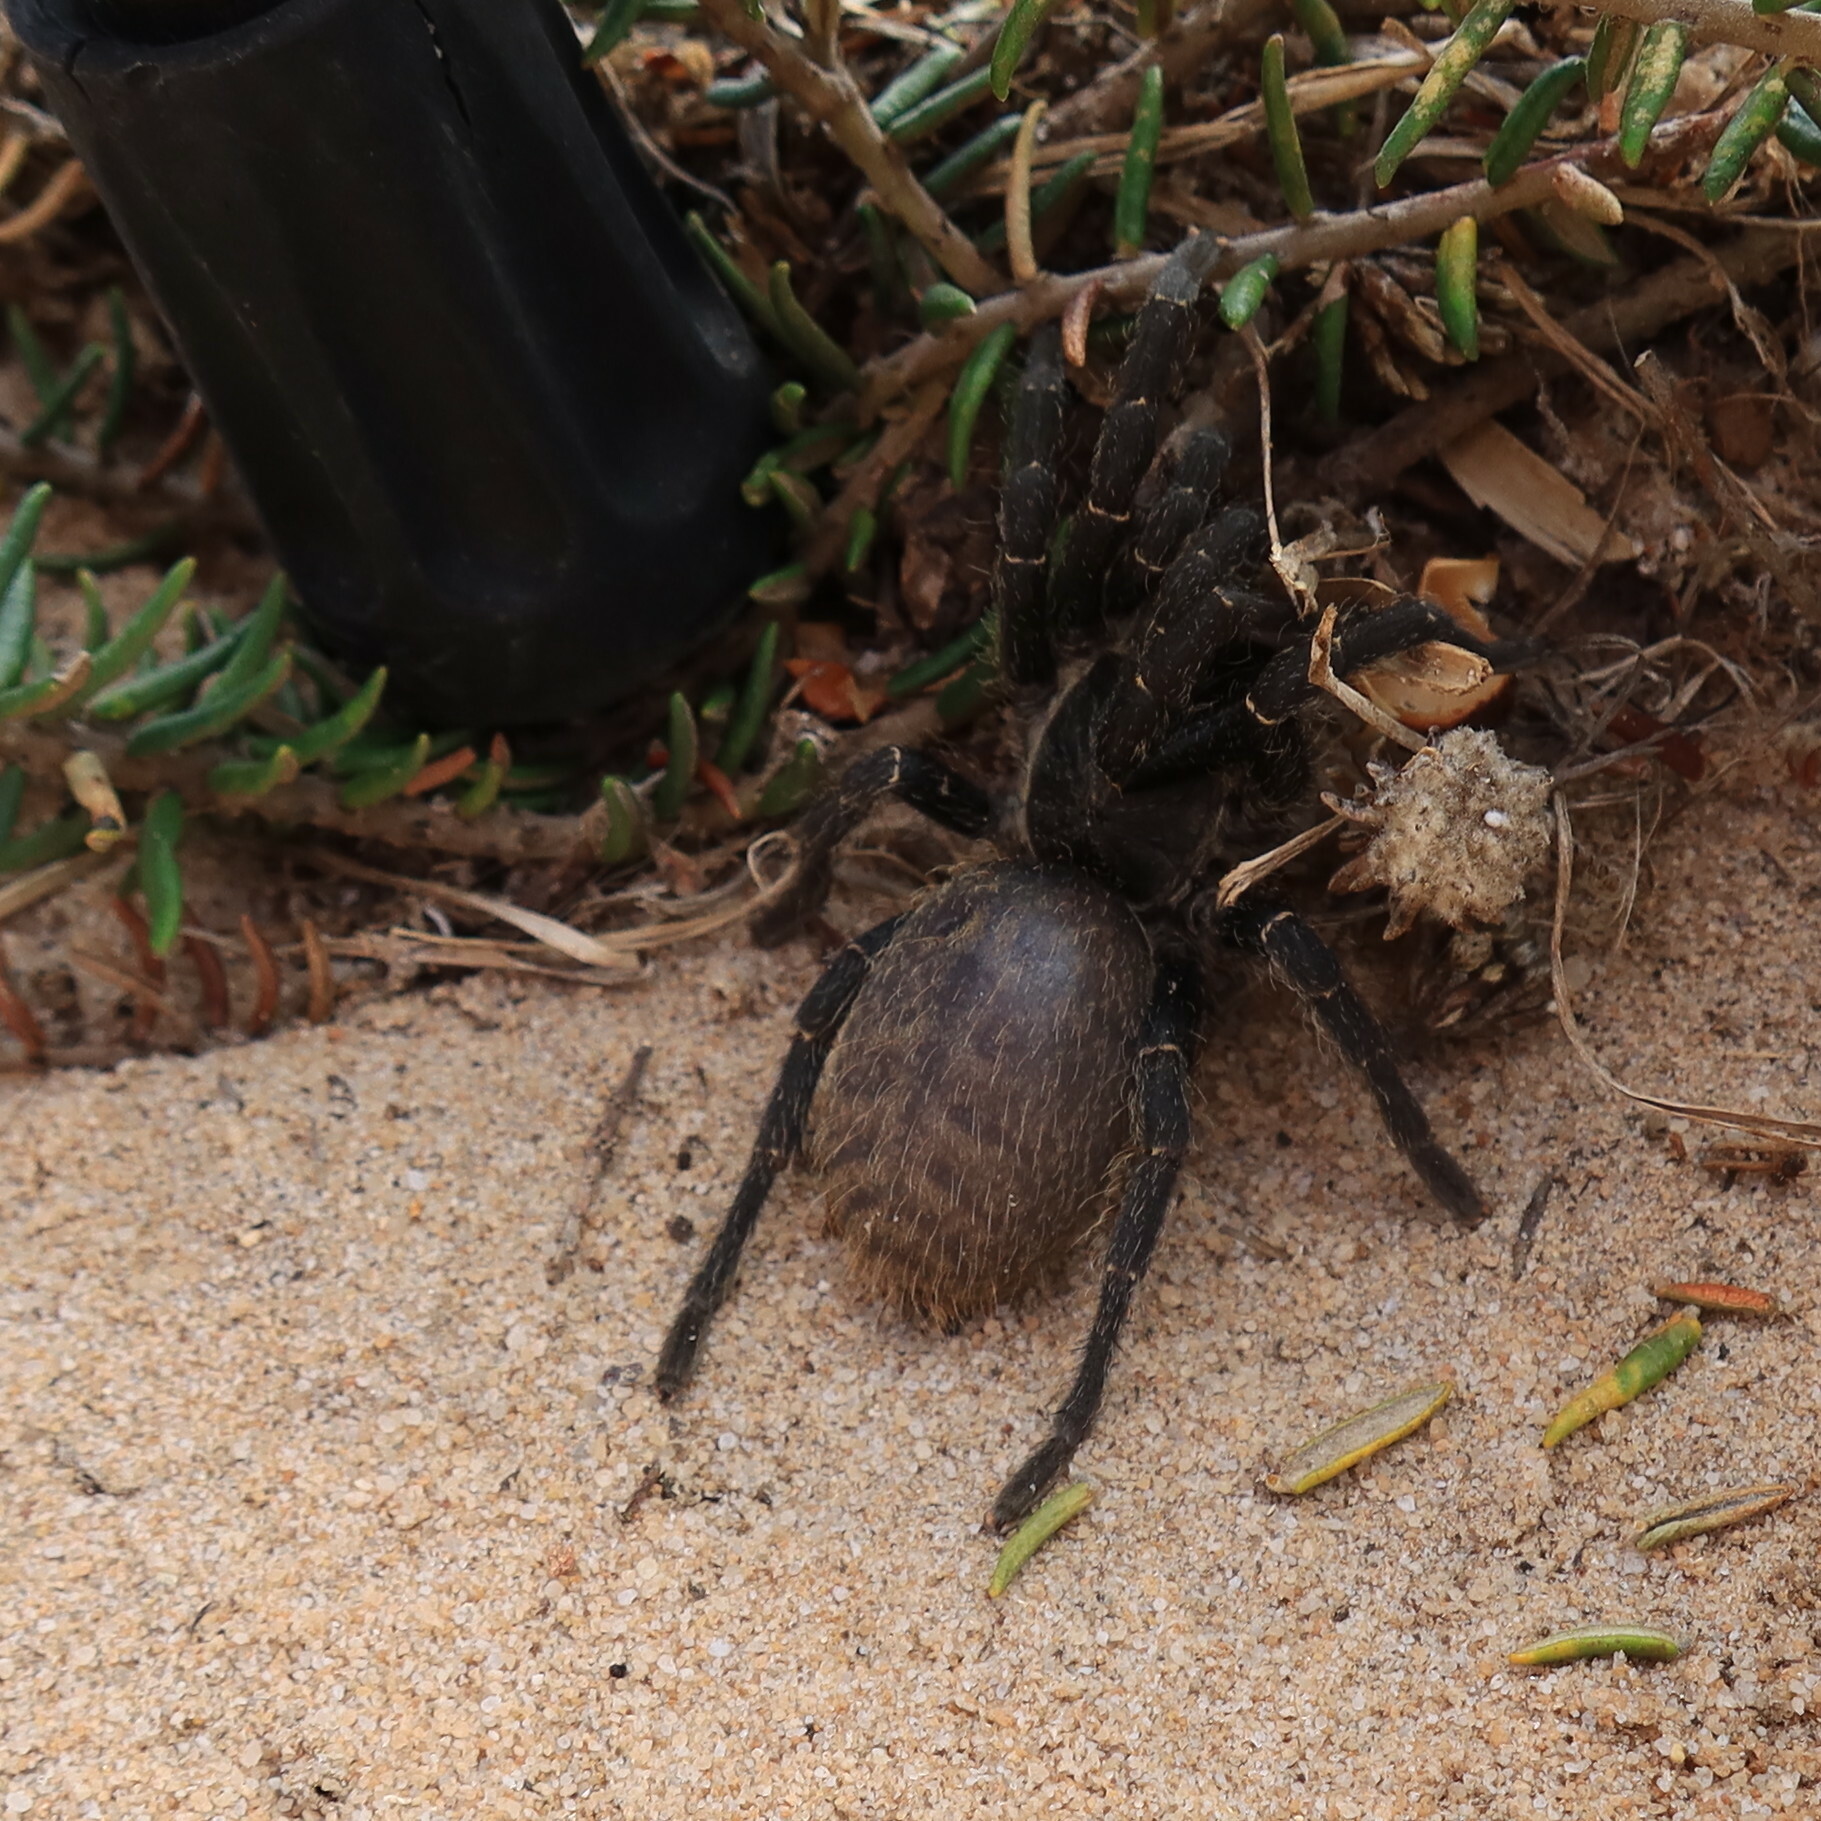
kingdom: Animalia
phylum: Arthropoda
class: Arachnida
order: Araneae
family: Theraphosidae
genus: Harpactira
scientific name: Harpactira atra
